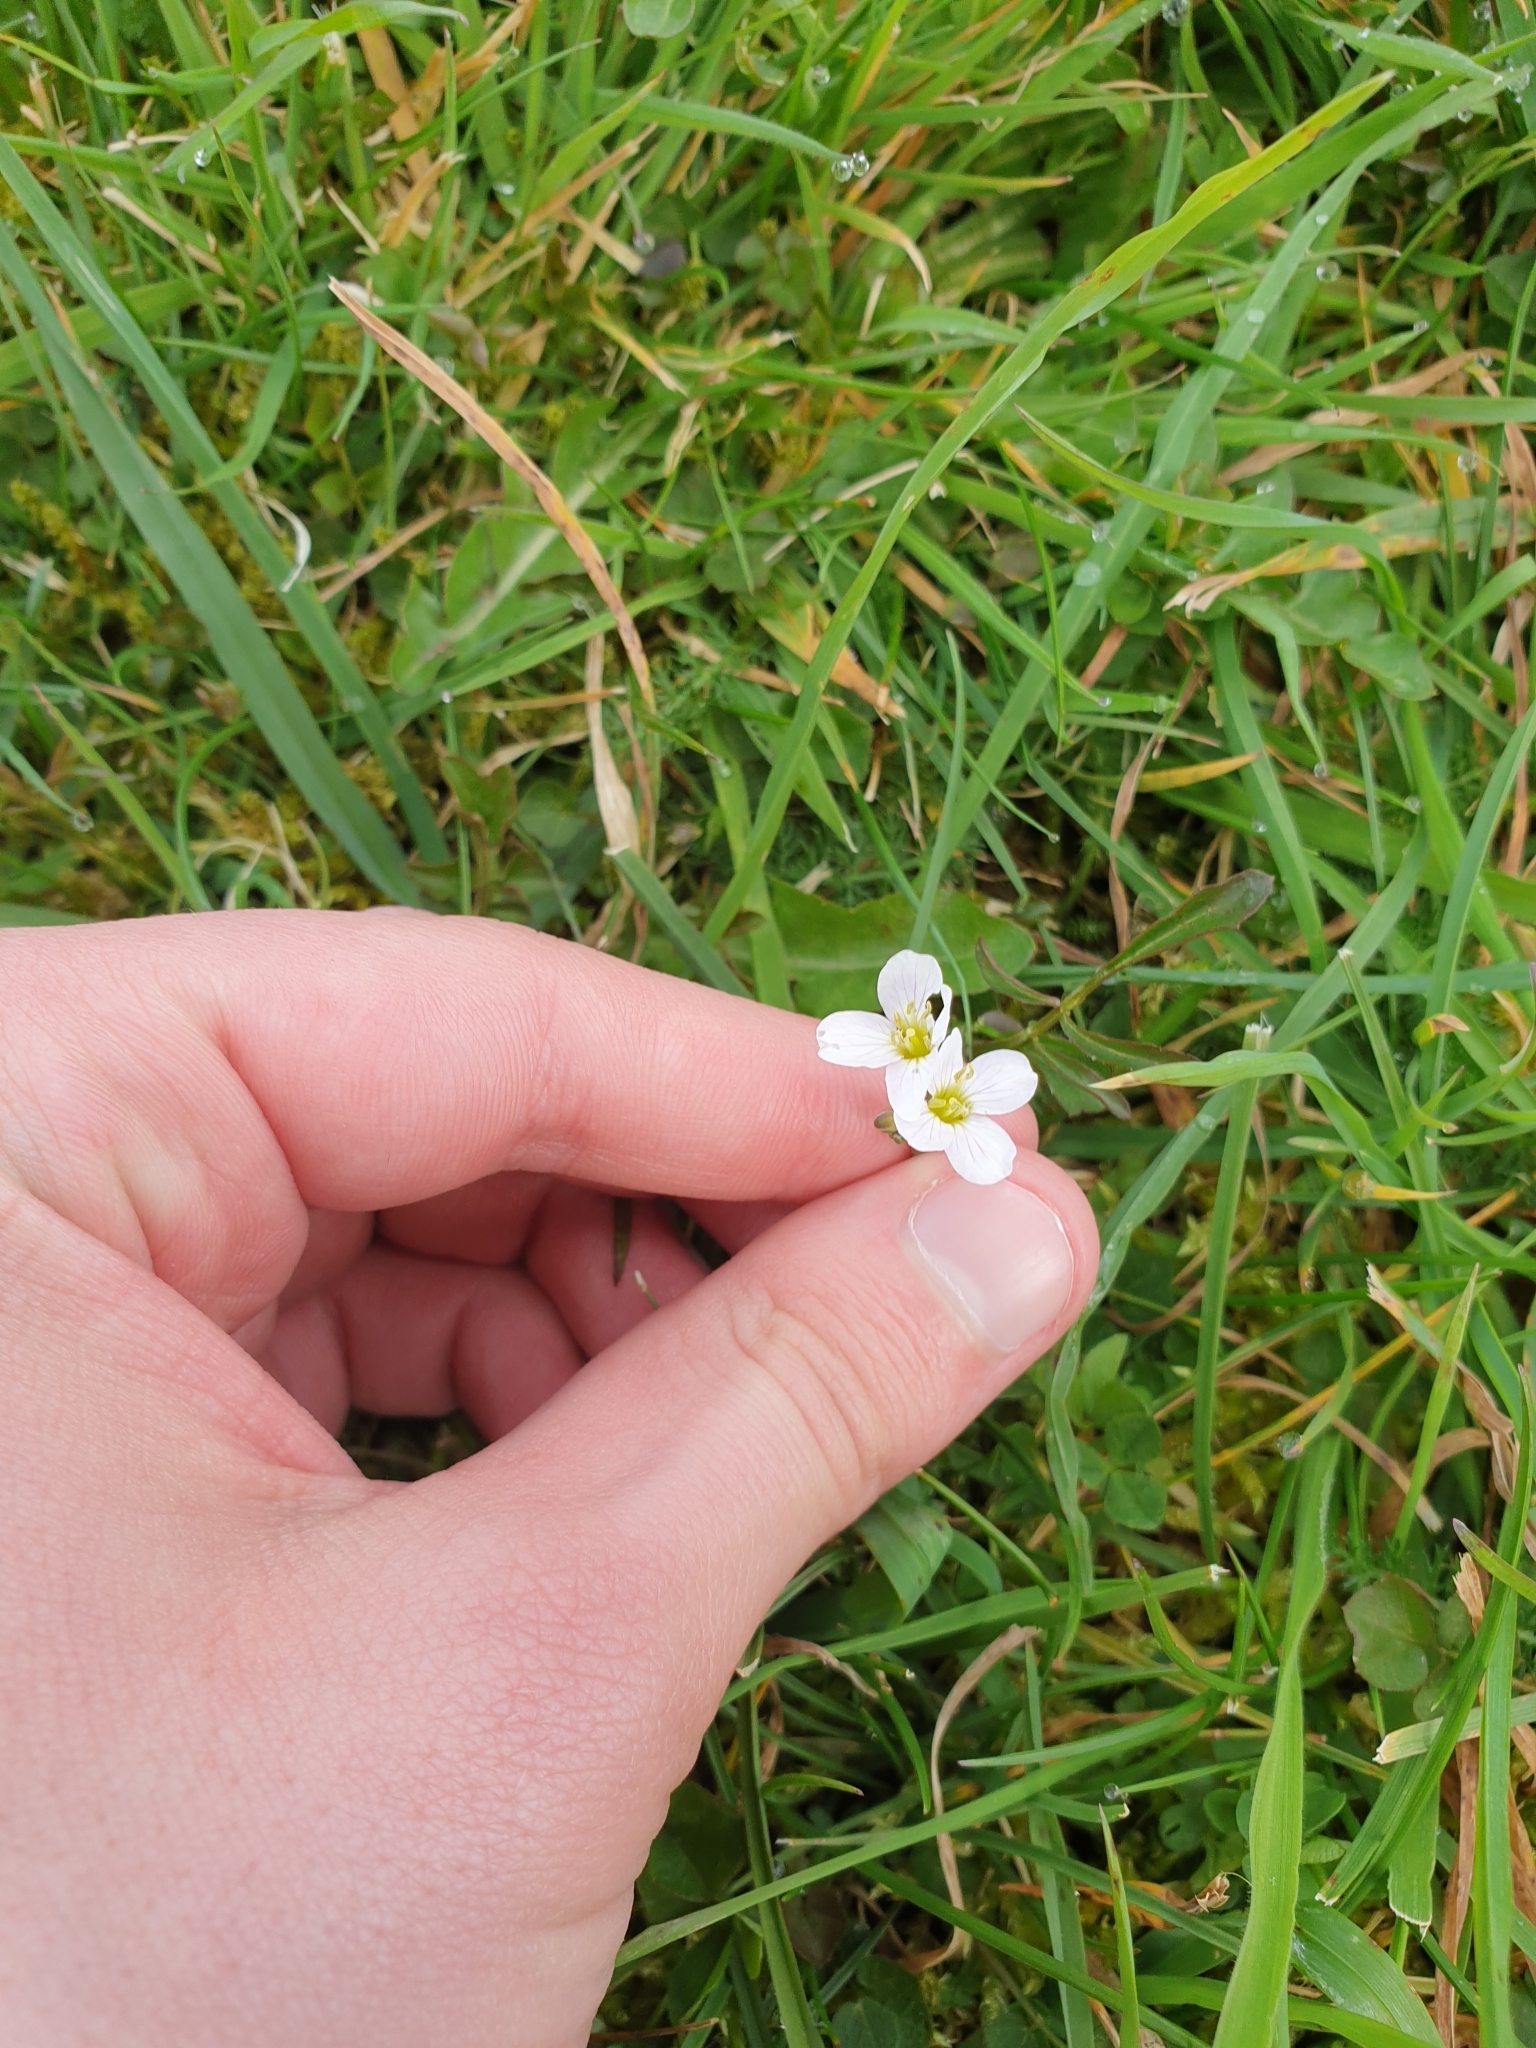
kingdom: Plantae
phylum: Tracheophyta
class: Magnoliopsida
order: Brassicales
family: Brassicaceae
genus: Cardamine
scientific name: Cardamine pratensis
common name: Cuckoo flower
